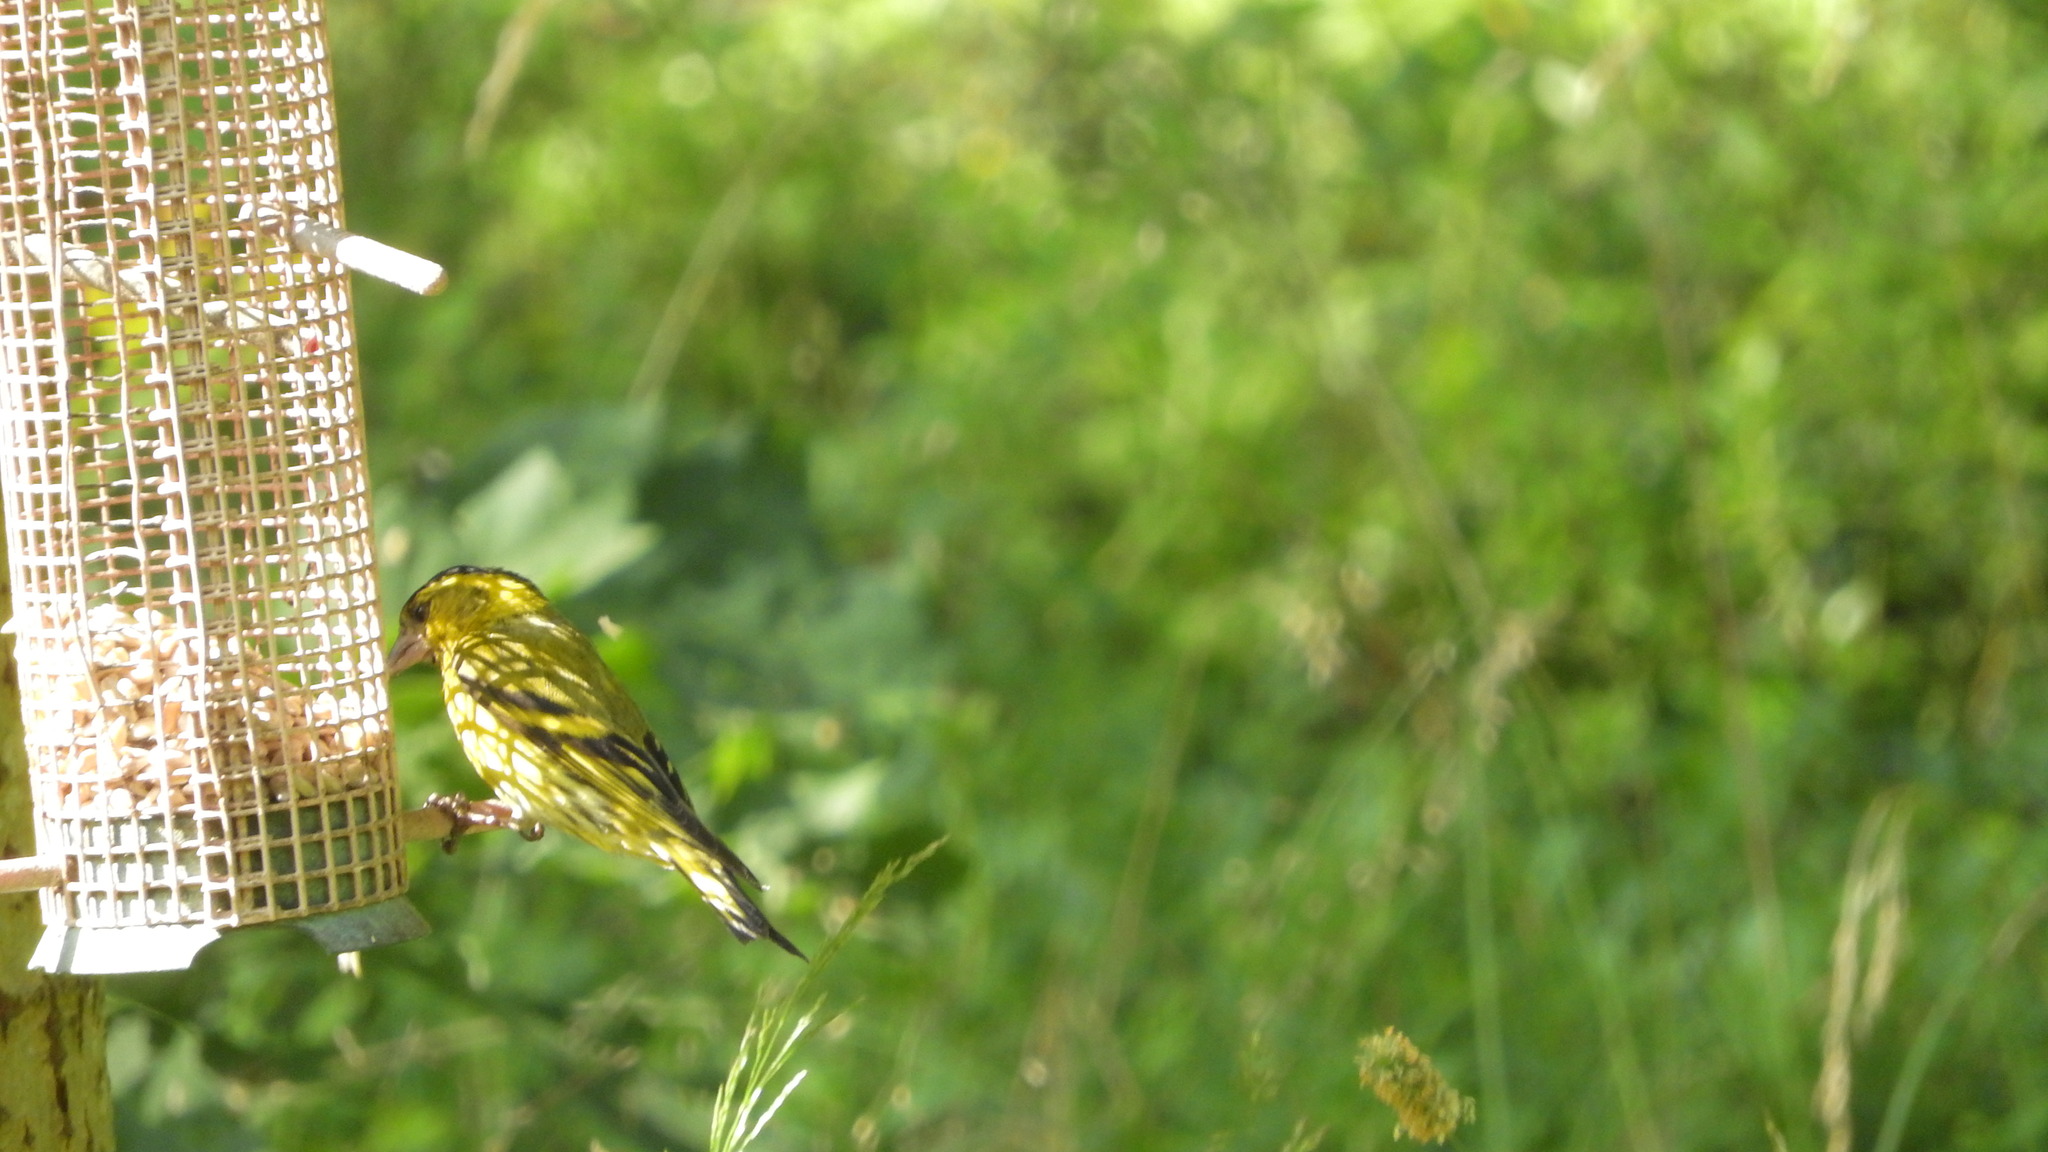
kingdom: Animalia
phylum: Chordata
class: Aves
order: Passeriformes
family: Fringillidae
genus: Spinus
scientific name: Spinus spinus
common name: Eurasian siskin
